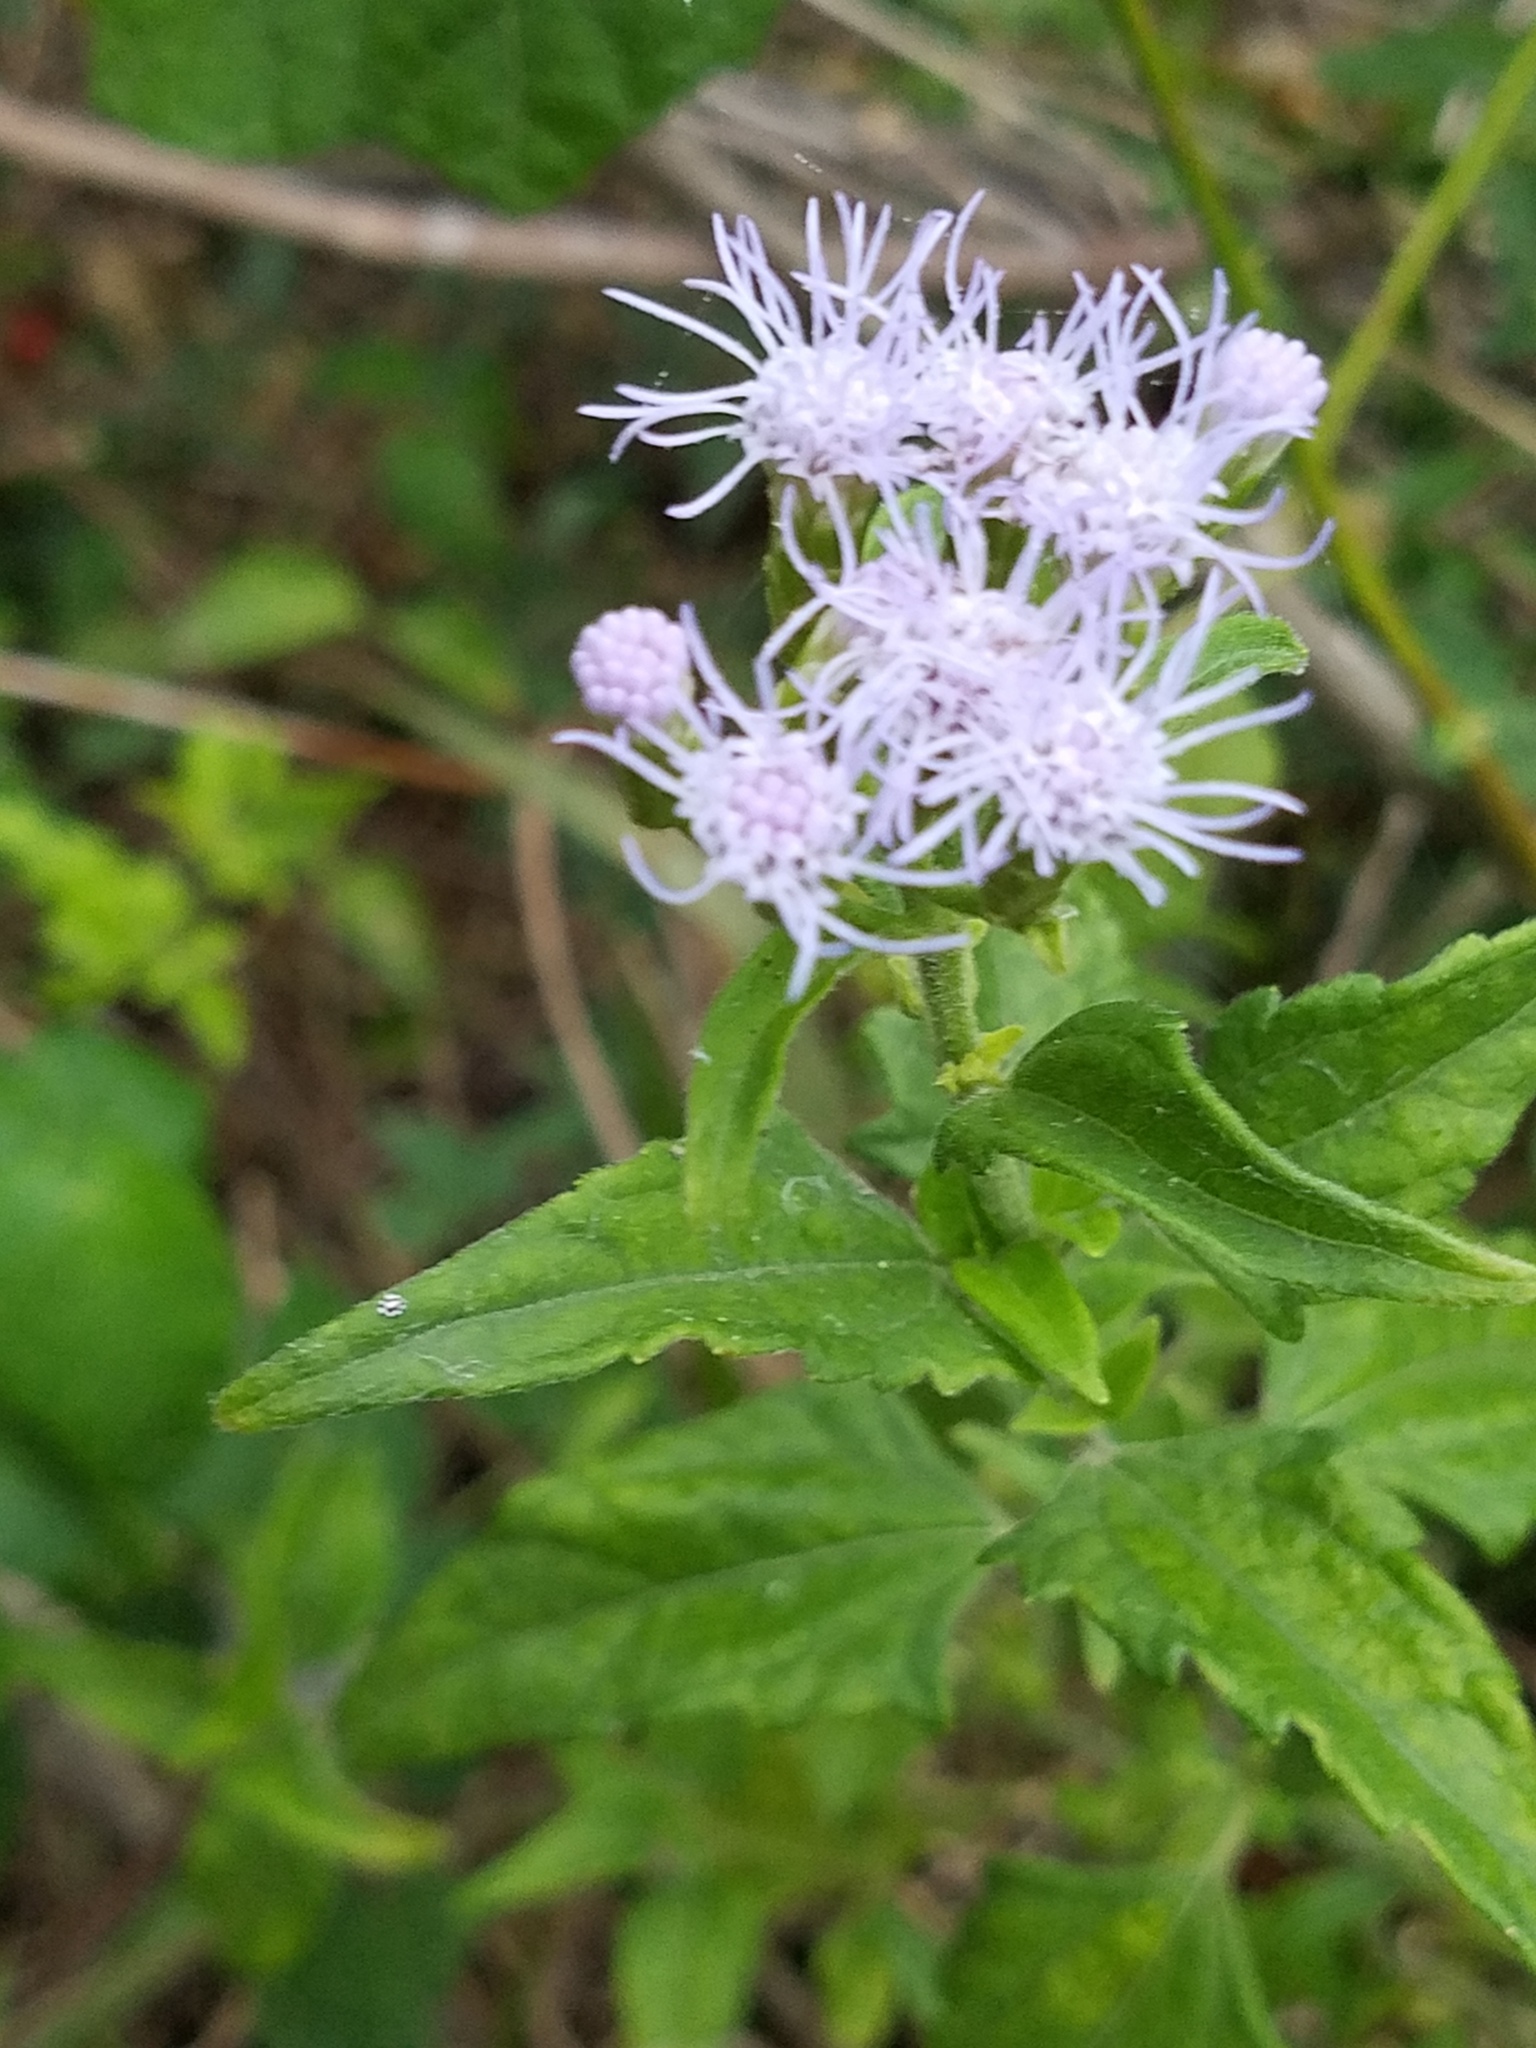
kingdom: Plantae
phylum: Tracheophyta
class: Magnoliopsida
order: Asterales
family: Asteraceae
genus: Chromolaena
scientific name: Chromolaena odorata
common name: Siamweed
